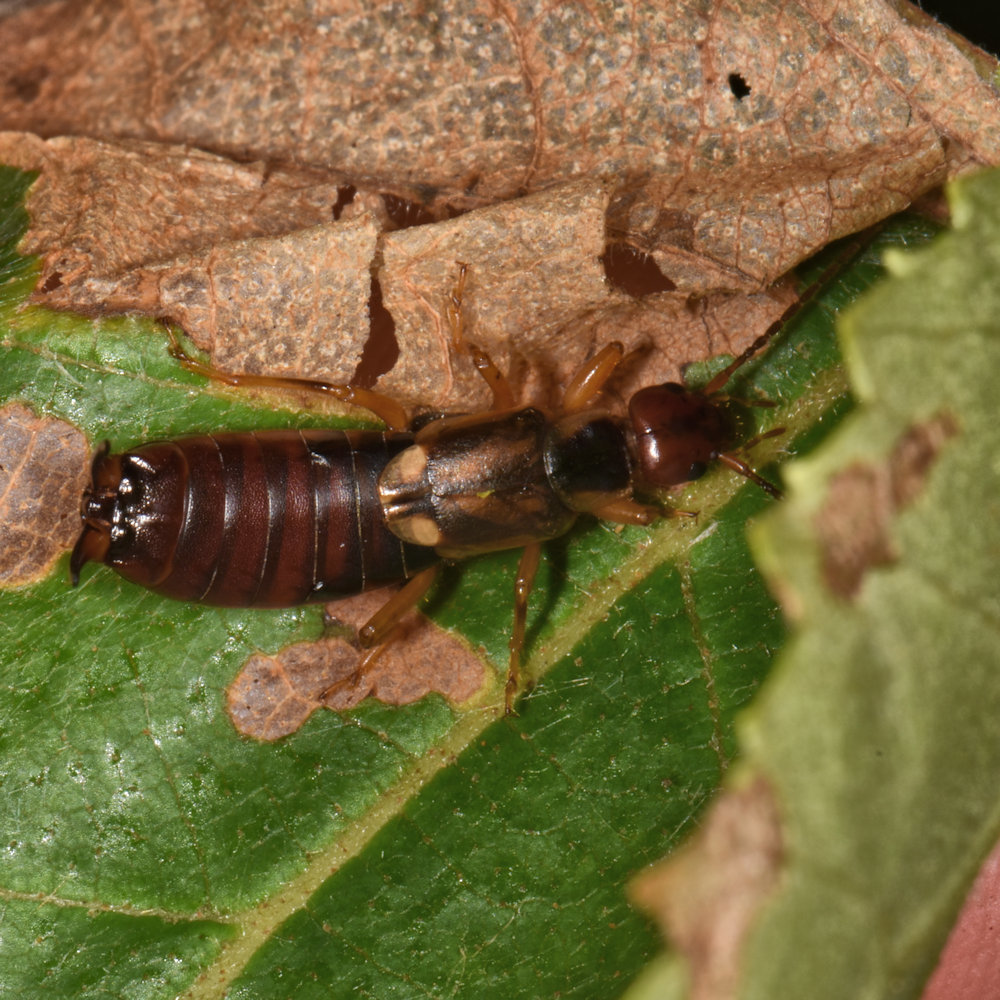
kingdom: Animalia
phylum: Arthropoda
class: Insecta
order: Dermaptera
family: Forficulidae
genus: Forficula
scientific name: Forficula
